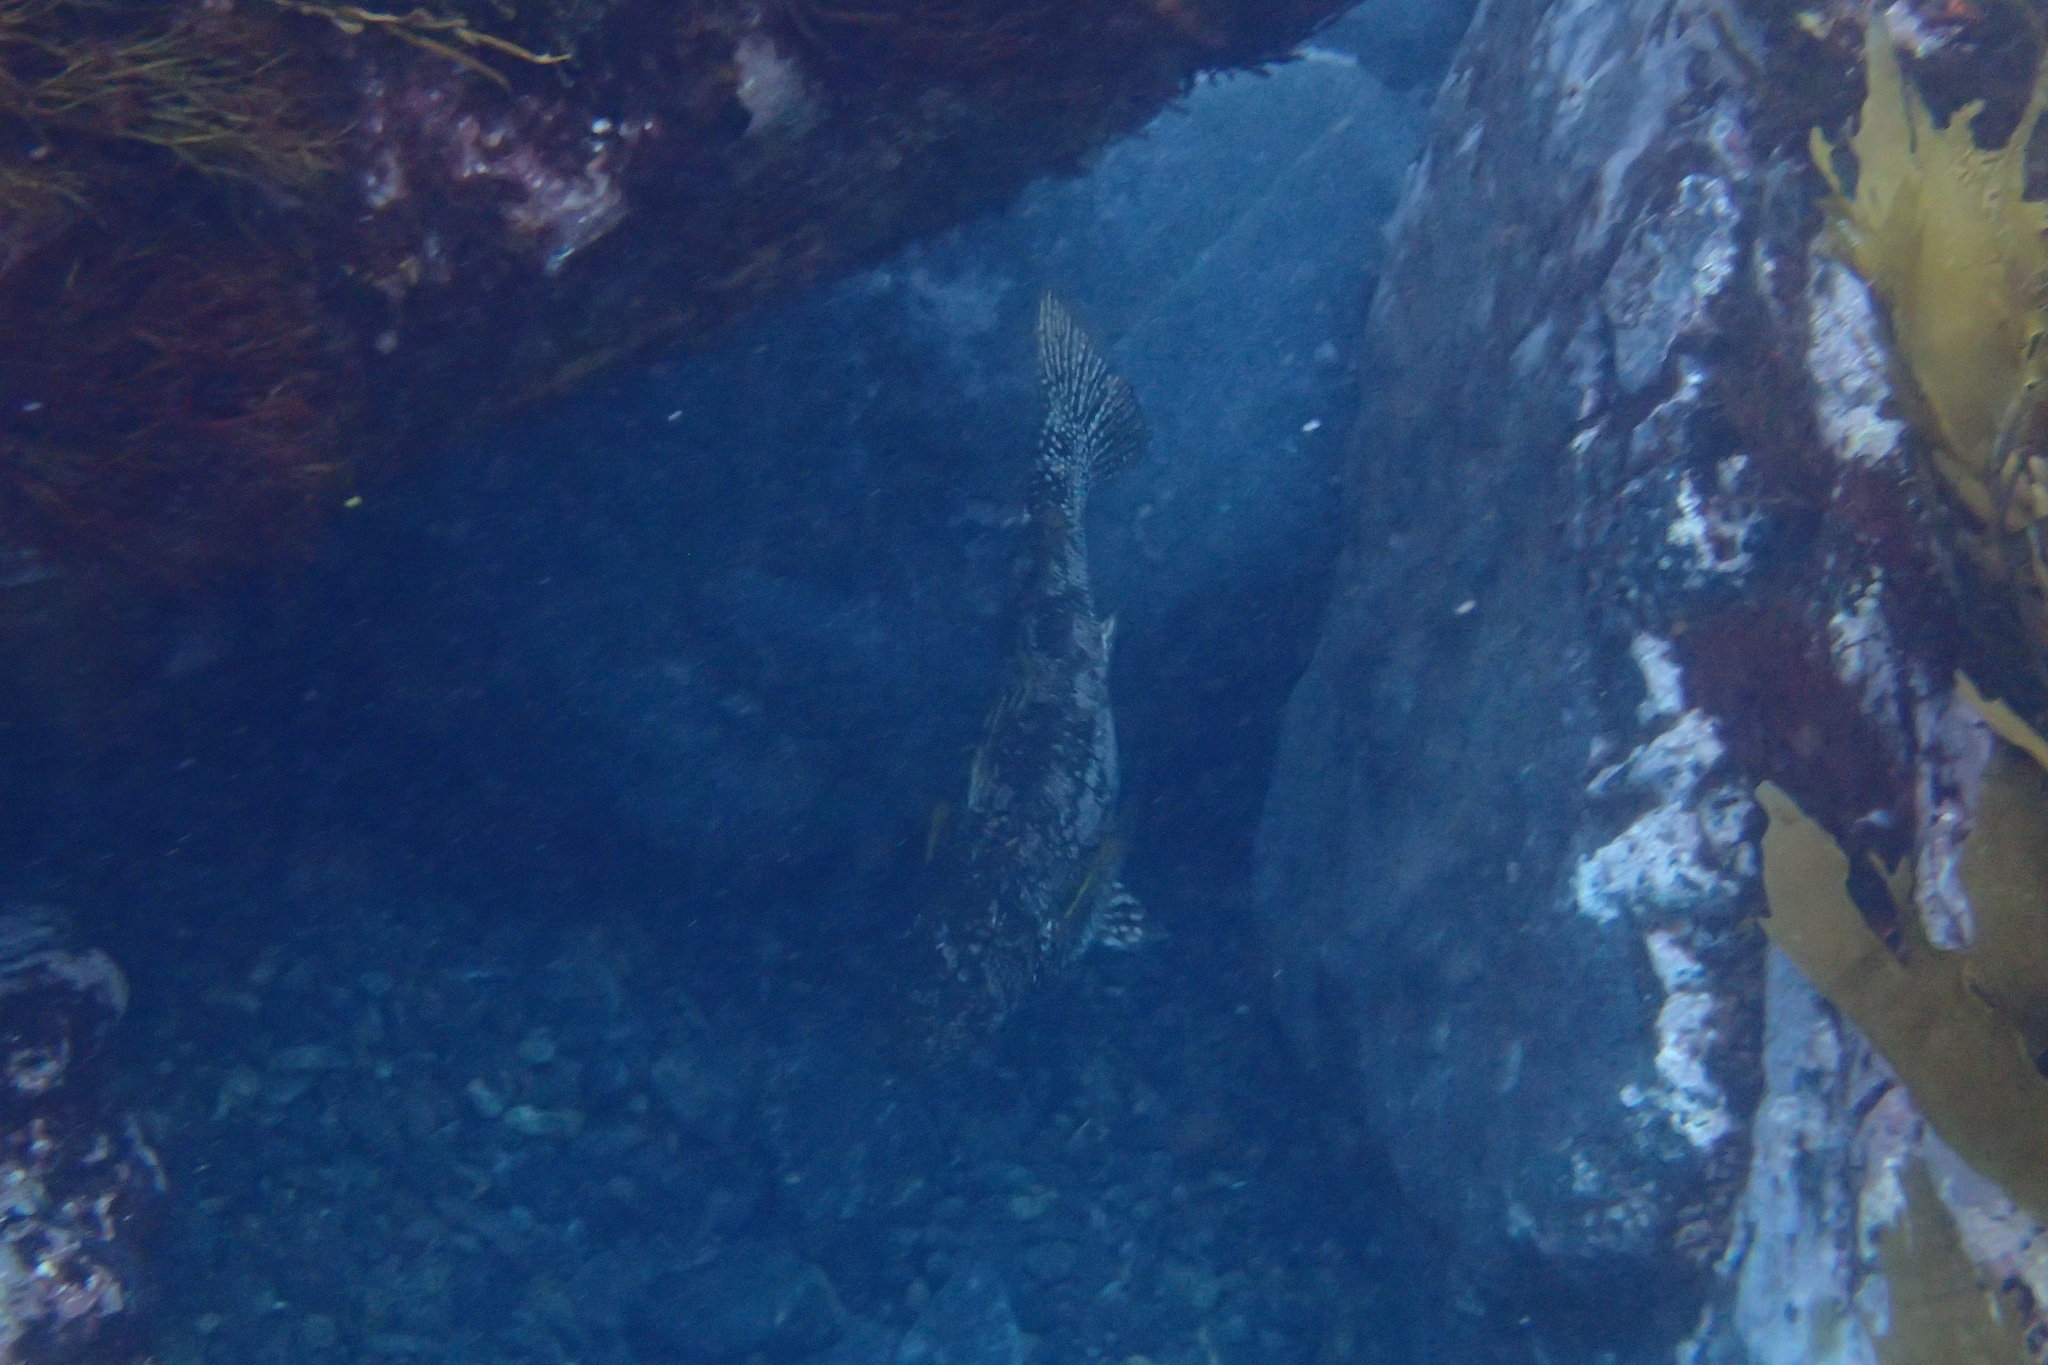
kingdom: Animalia
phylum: Chordata
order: Perciformes
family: Aplodactylidae
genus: Aplodactylus
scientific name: Aplodactylus arctidens
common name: Marblefish
